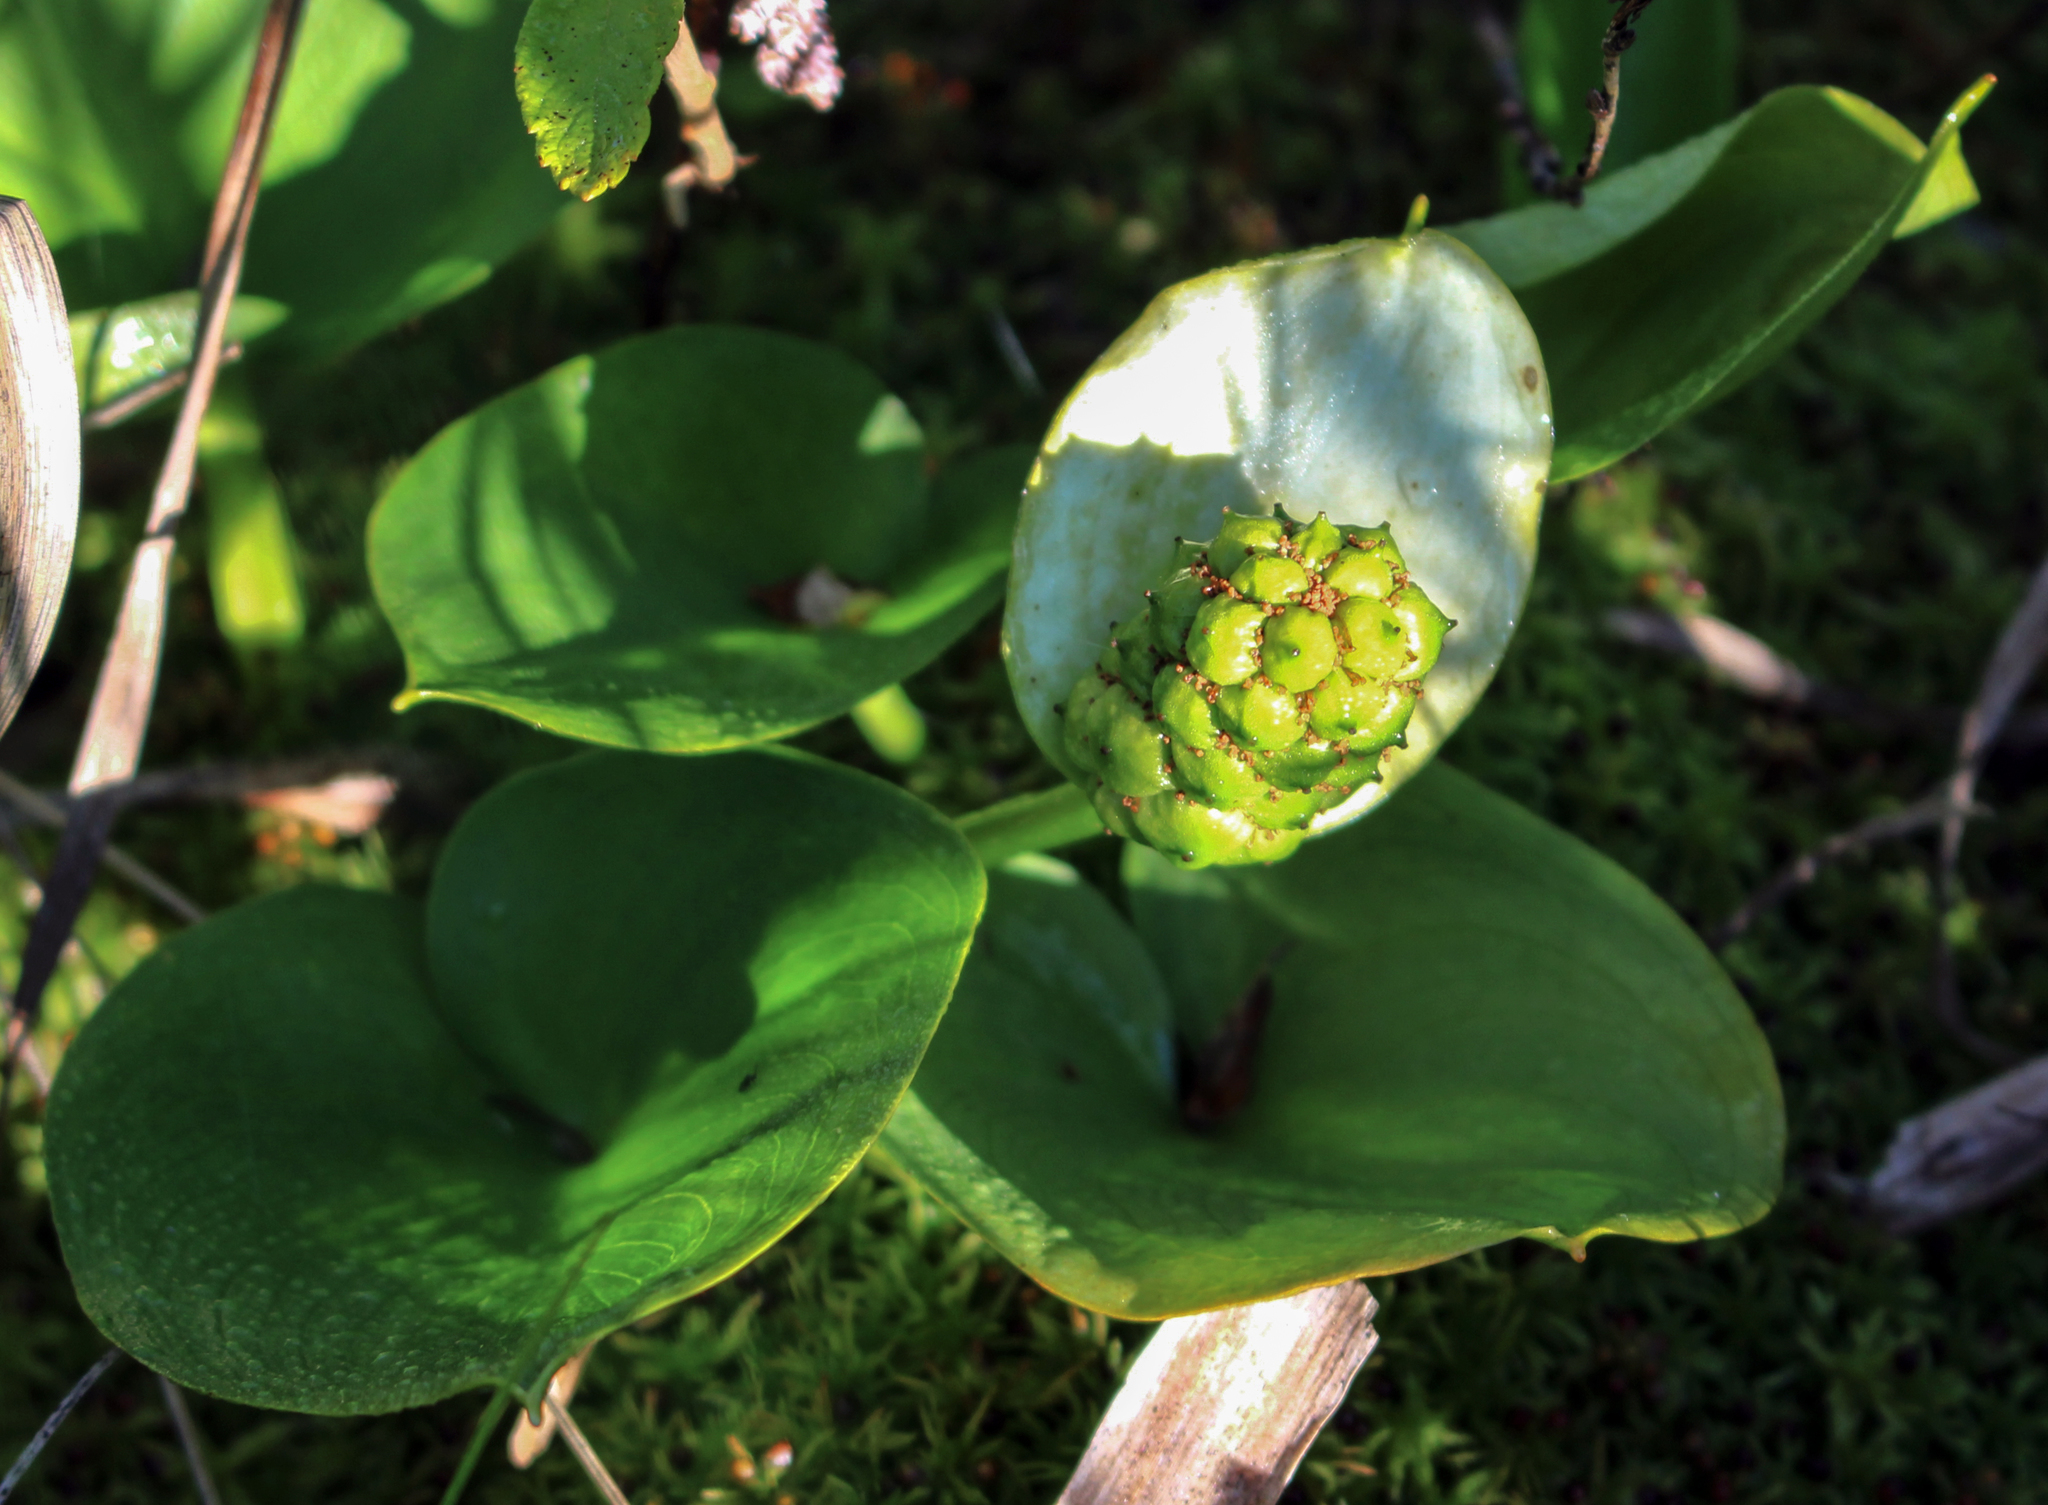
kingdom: Plantae
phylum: Tracheophyta
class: Liliopsida
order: Alismatales
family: Araceae
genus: Calla
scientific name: Calla palustris
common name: Bog arum
